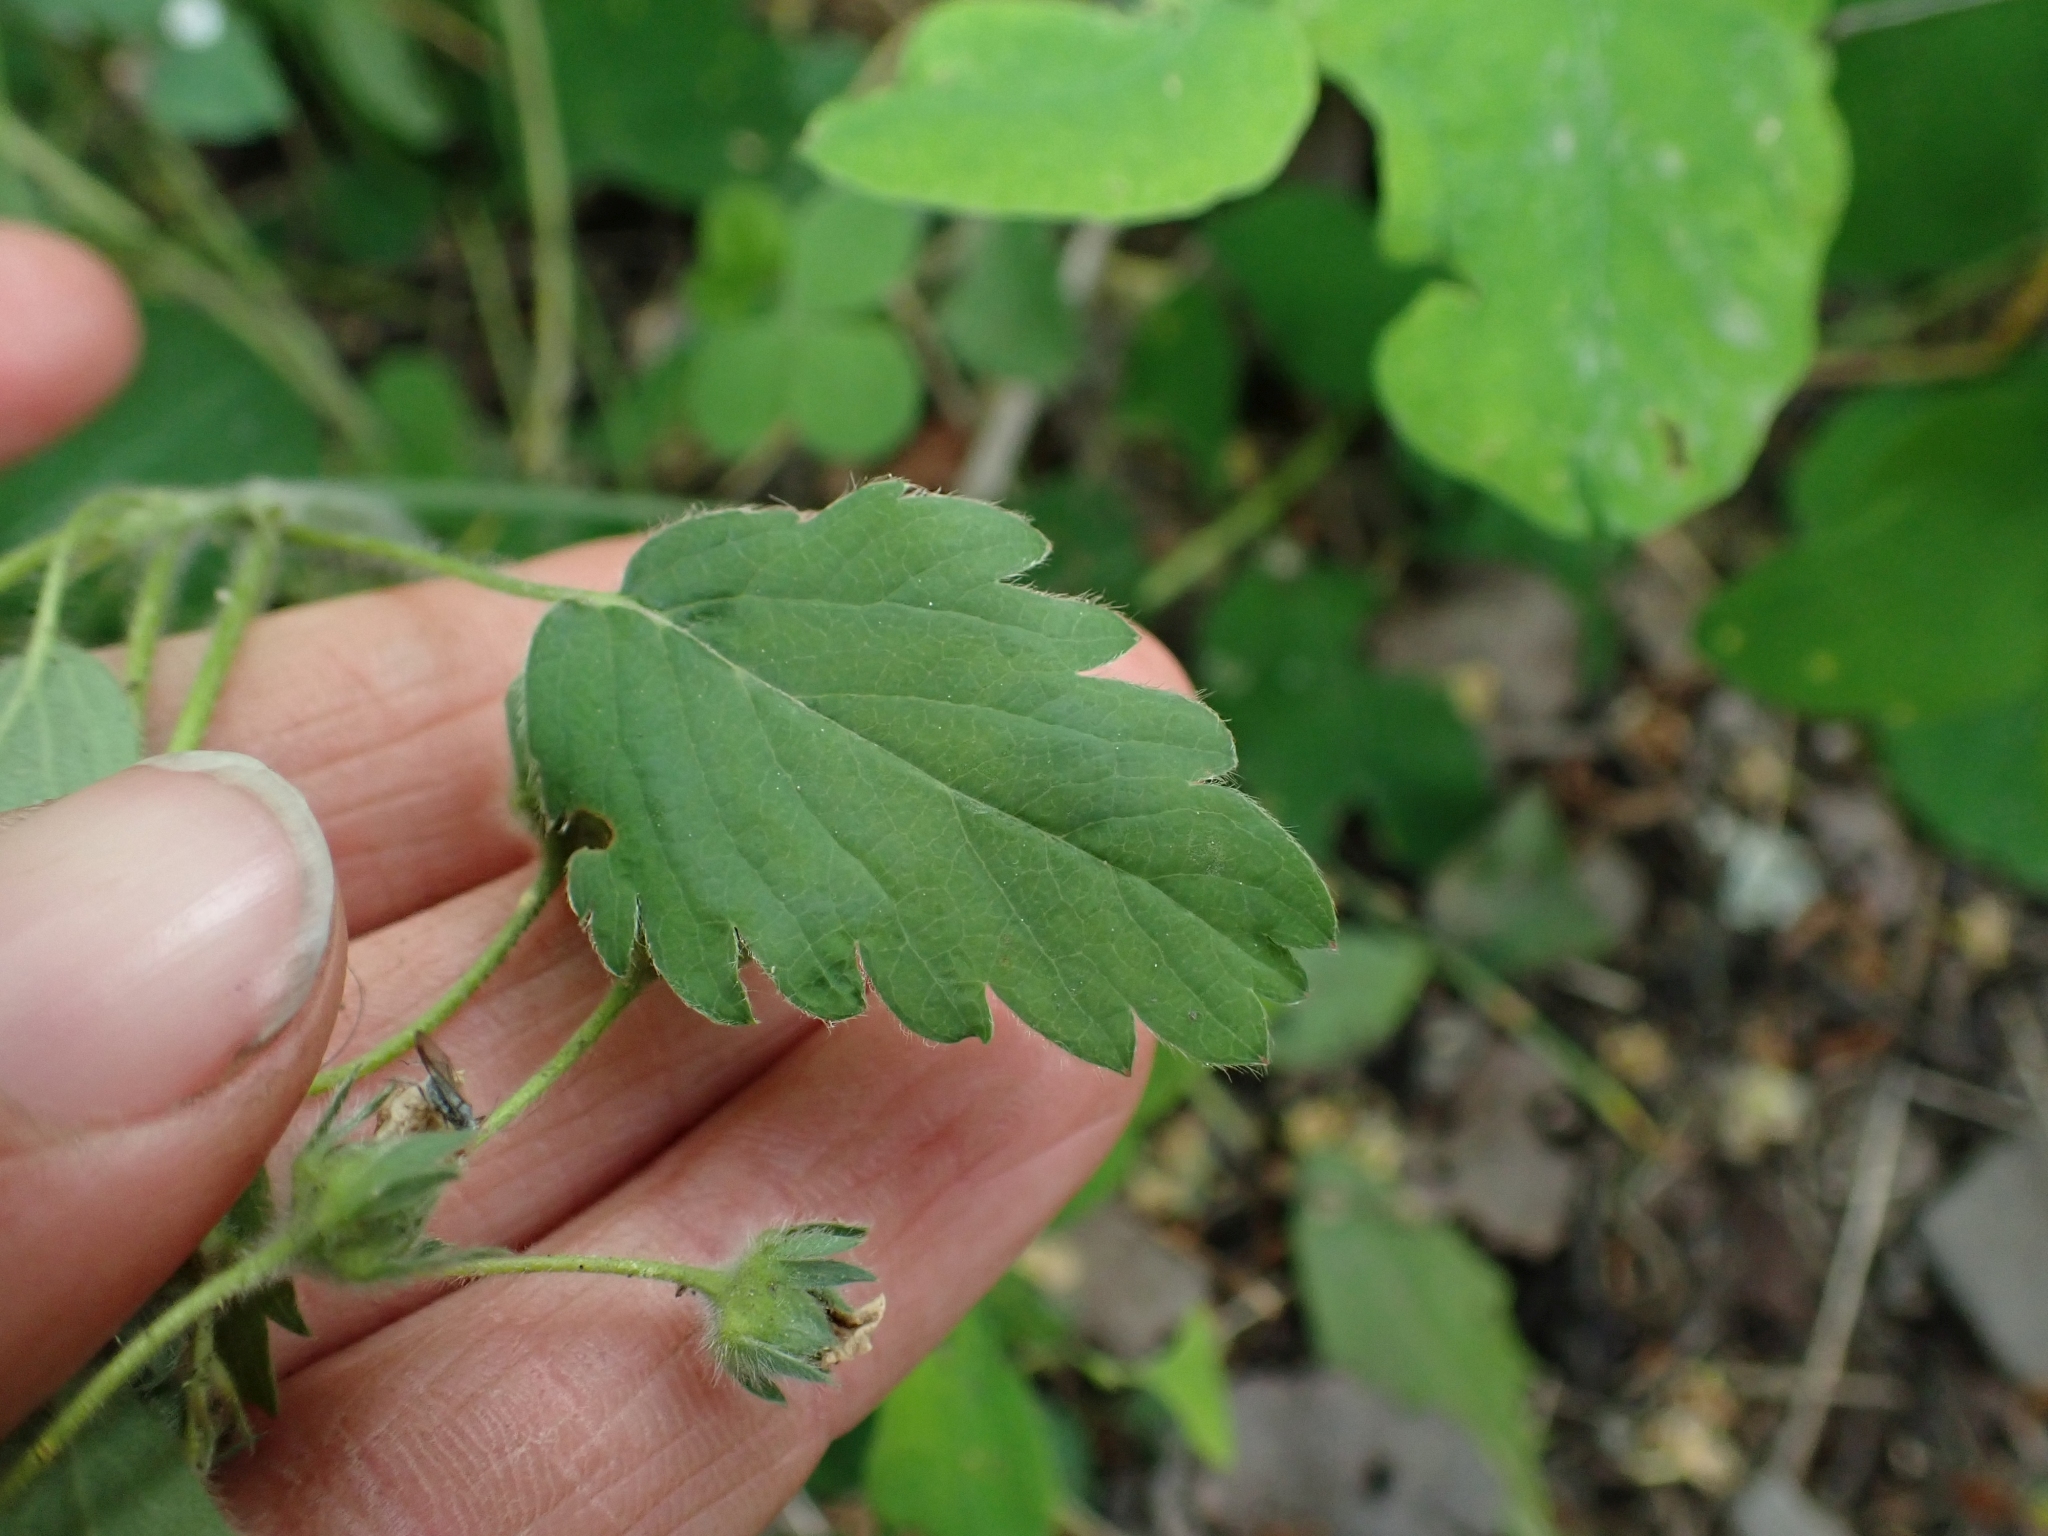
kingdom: Plantae
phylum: Tracheophyta
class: Magnoliopsida
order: Rosales
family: Rosaceae
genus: Fragaria
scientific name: Fragaria virginiana
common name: Thickleaved wild strawberry
